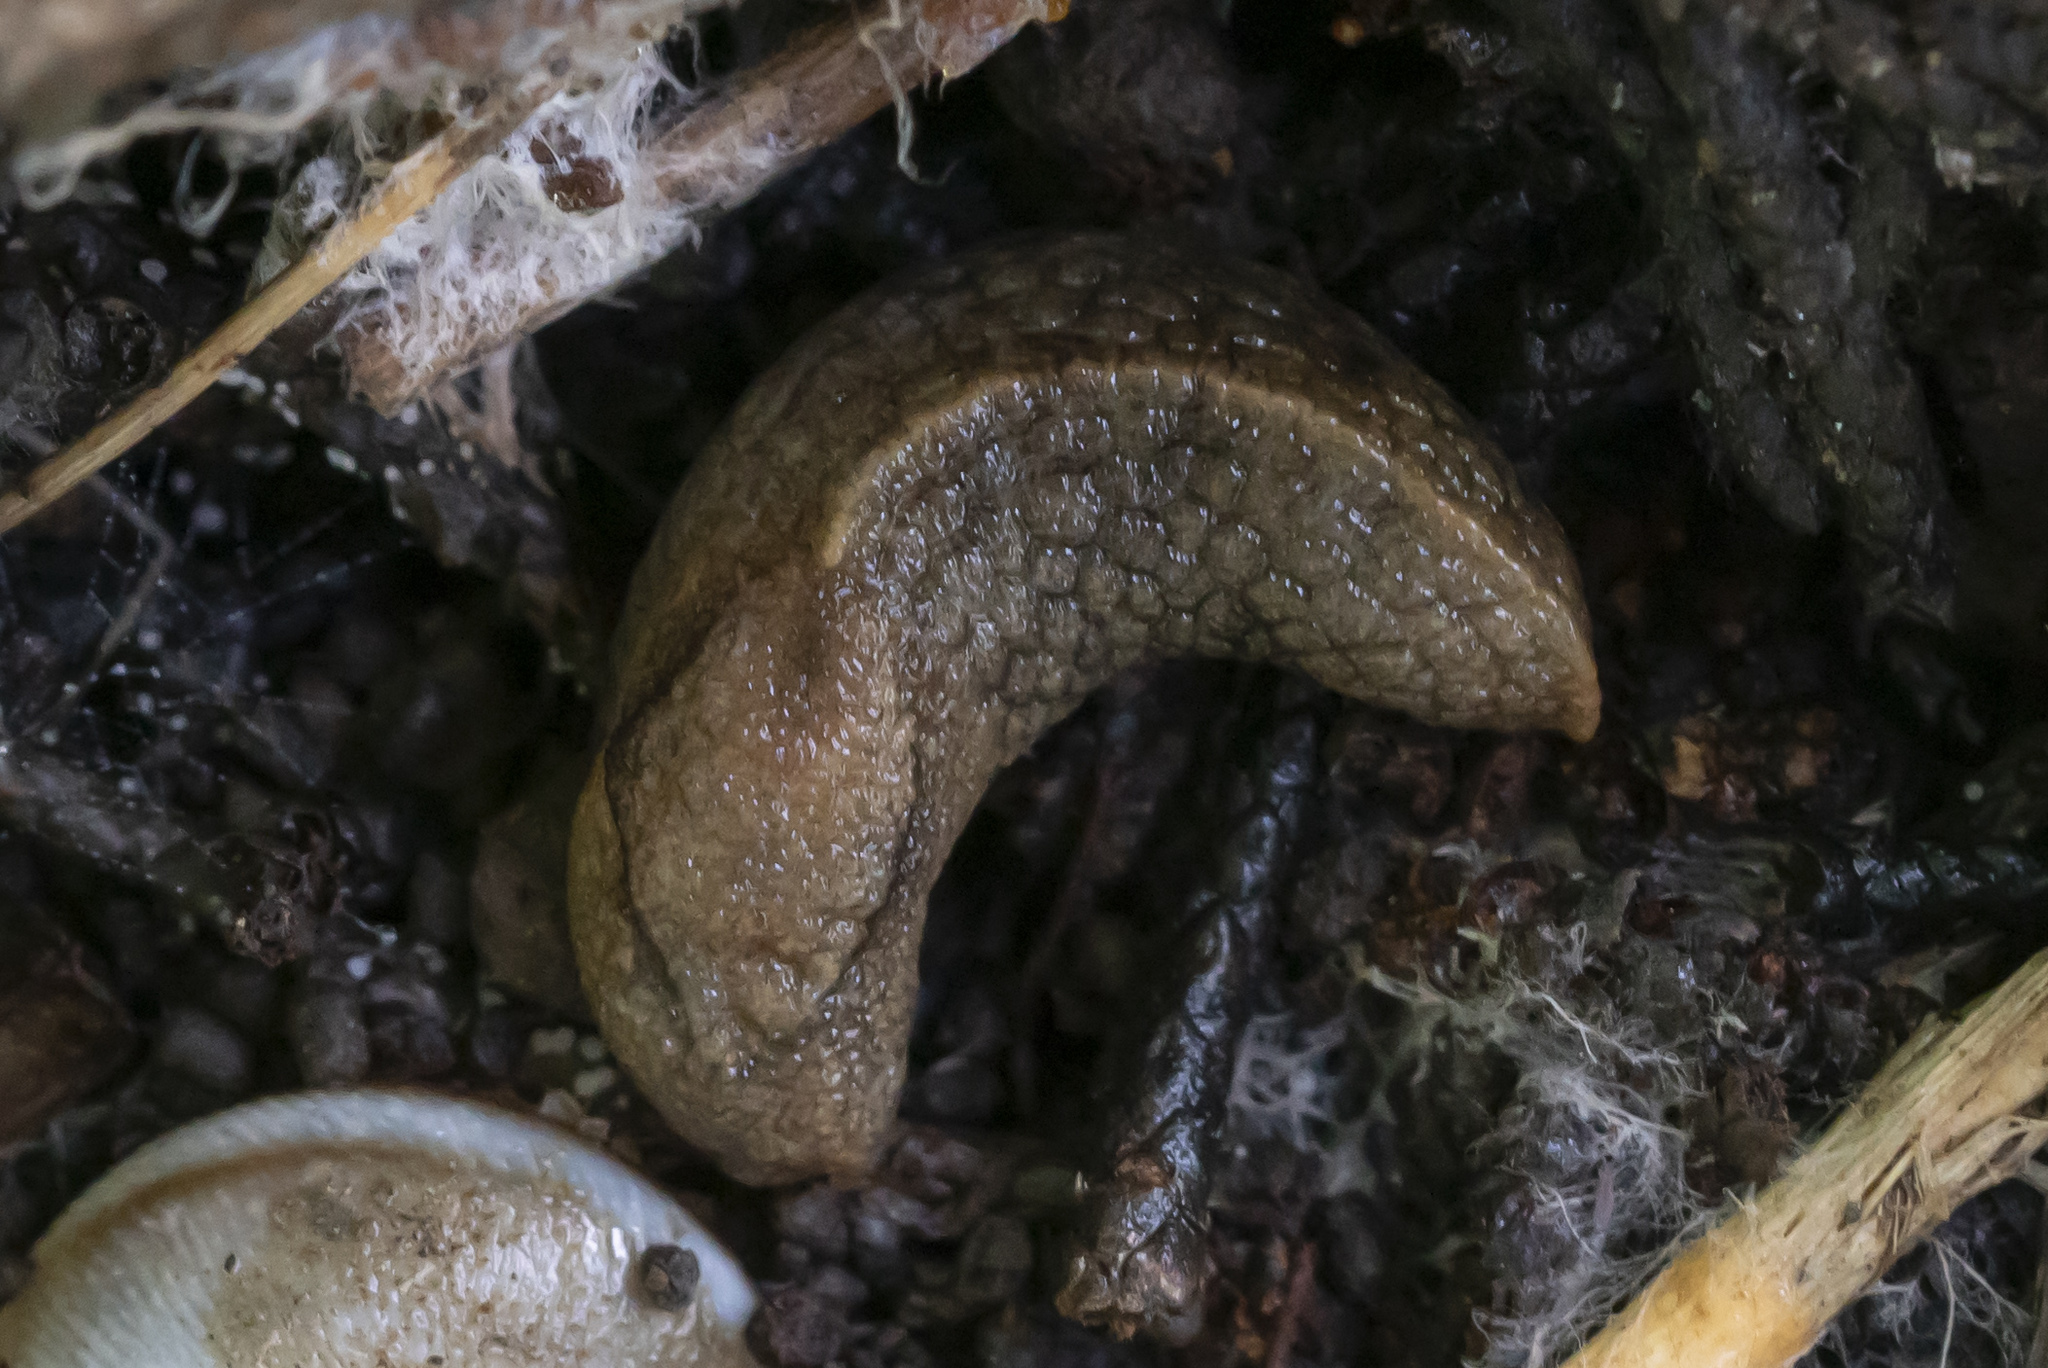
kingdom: Animalia
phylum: Mollusca
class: Gastropoda
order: Stylommatophora
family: Milacidae
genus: Milax
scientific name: Milax altenai
